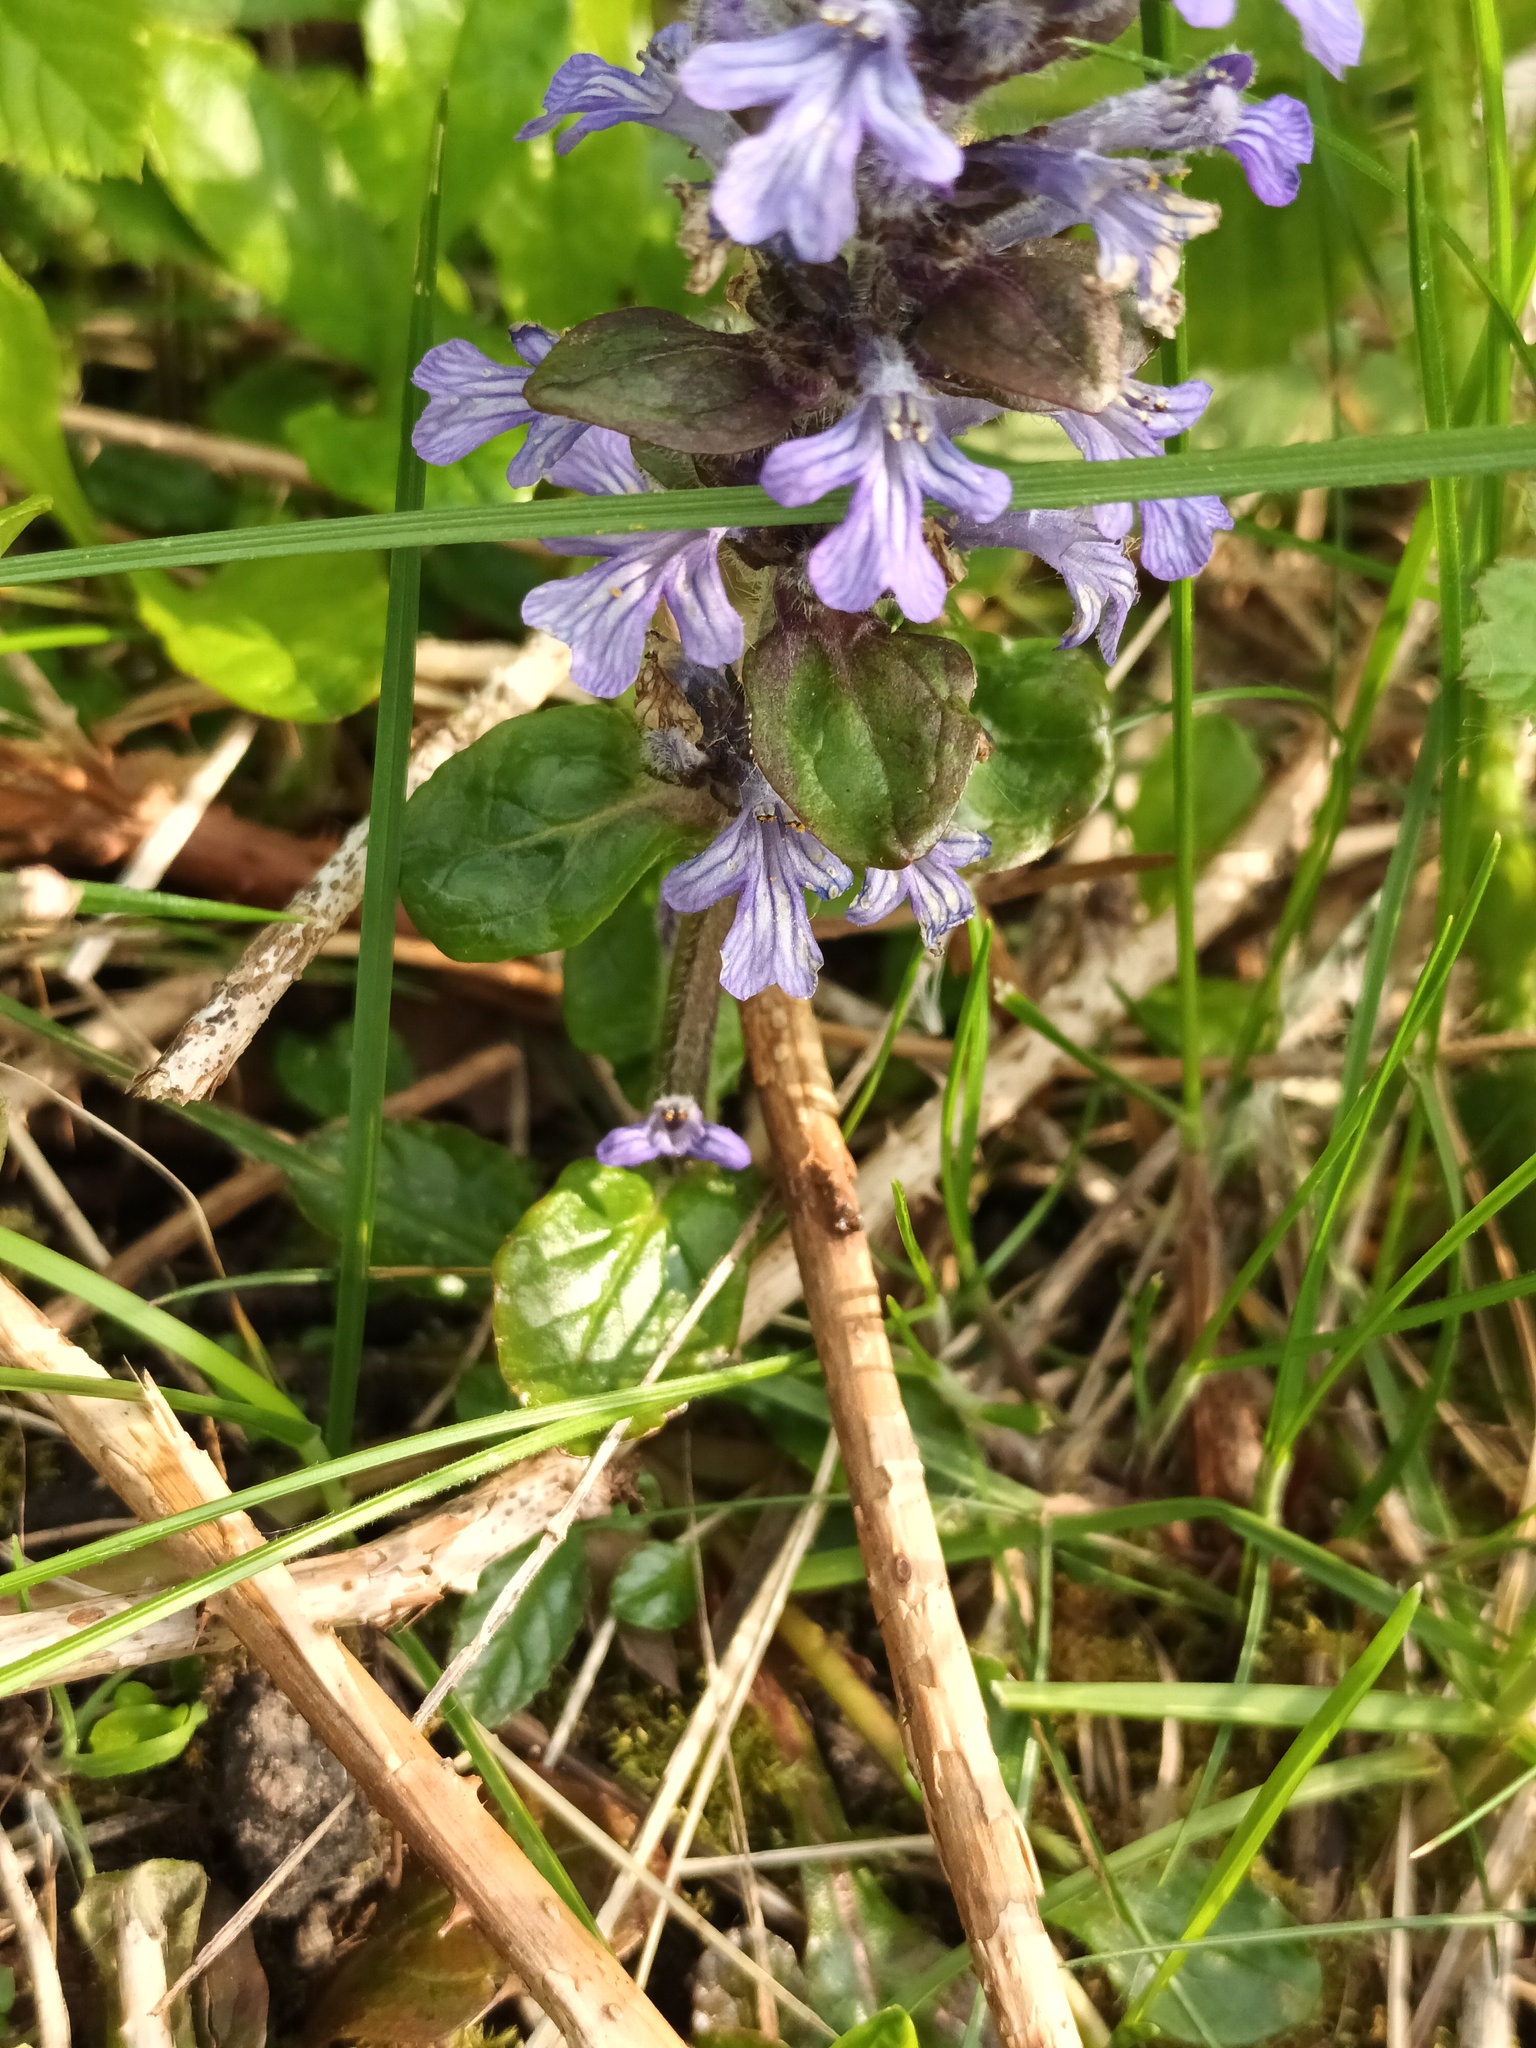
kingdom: Plantae
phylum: Tracheophyta
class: Magnoliopsida
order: Lamiales
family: Lamiaceae
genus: Ajuga
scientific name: Ajuga reptans
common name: Bugle
